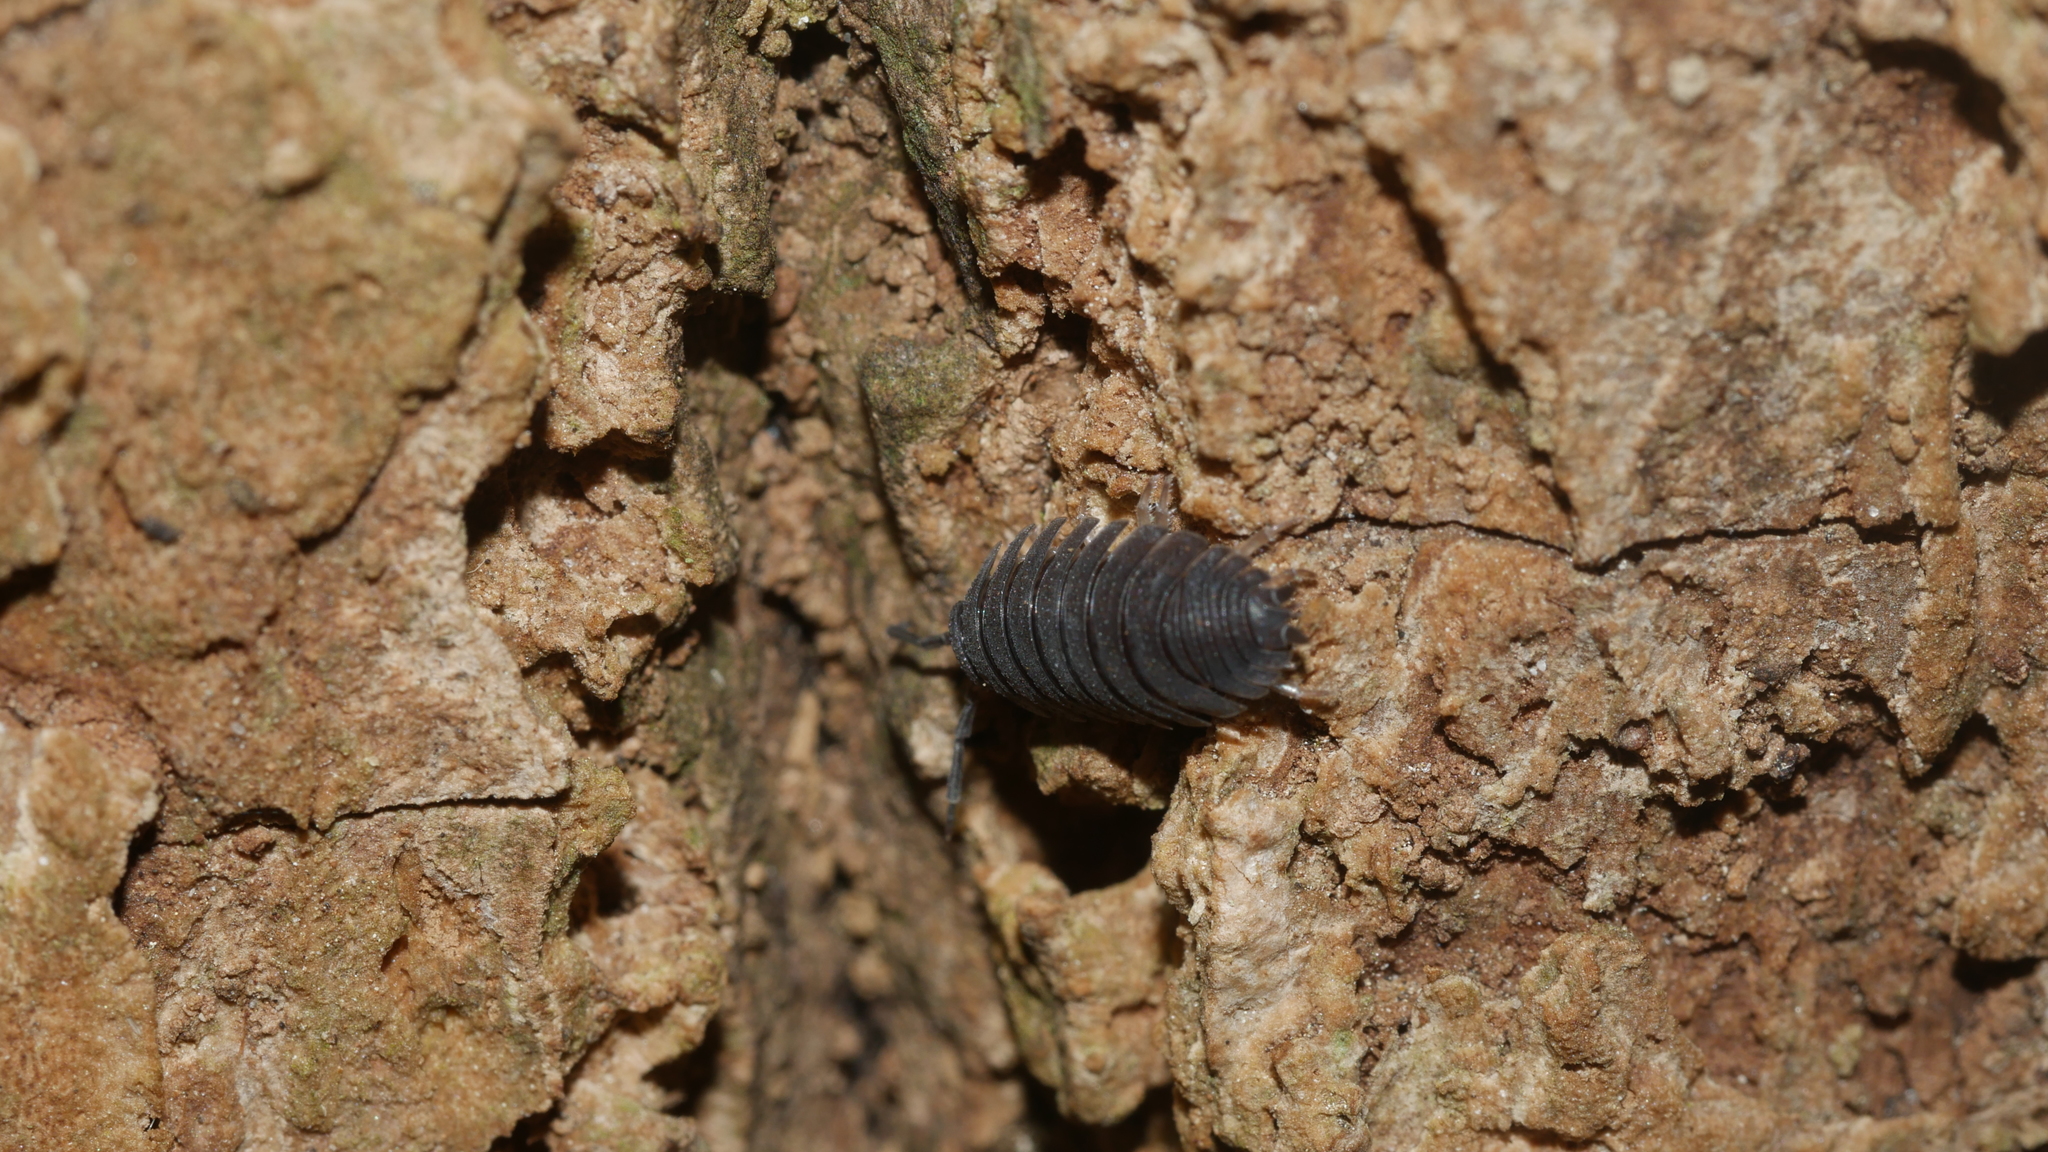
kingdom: Animalia
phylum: Arthropoda
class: Malacostraca
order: Isopoda
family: Porcellionidae
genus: Porcellio
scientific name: Porcellio scaber
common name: Common rough woodlouse
